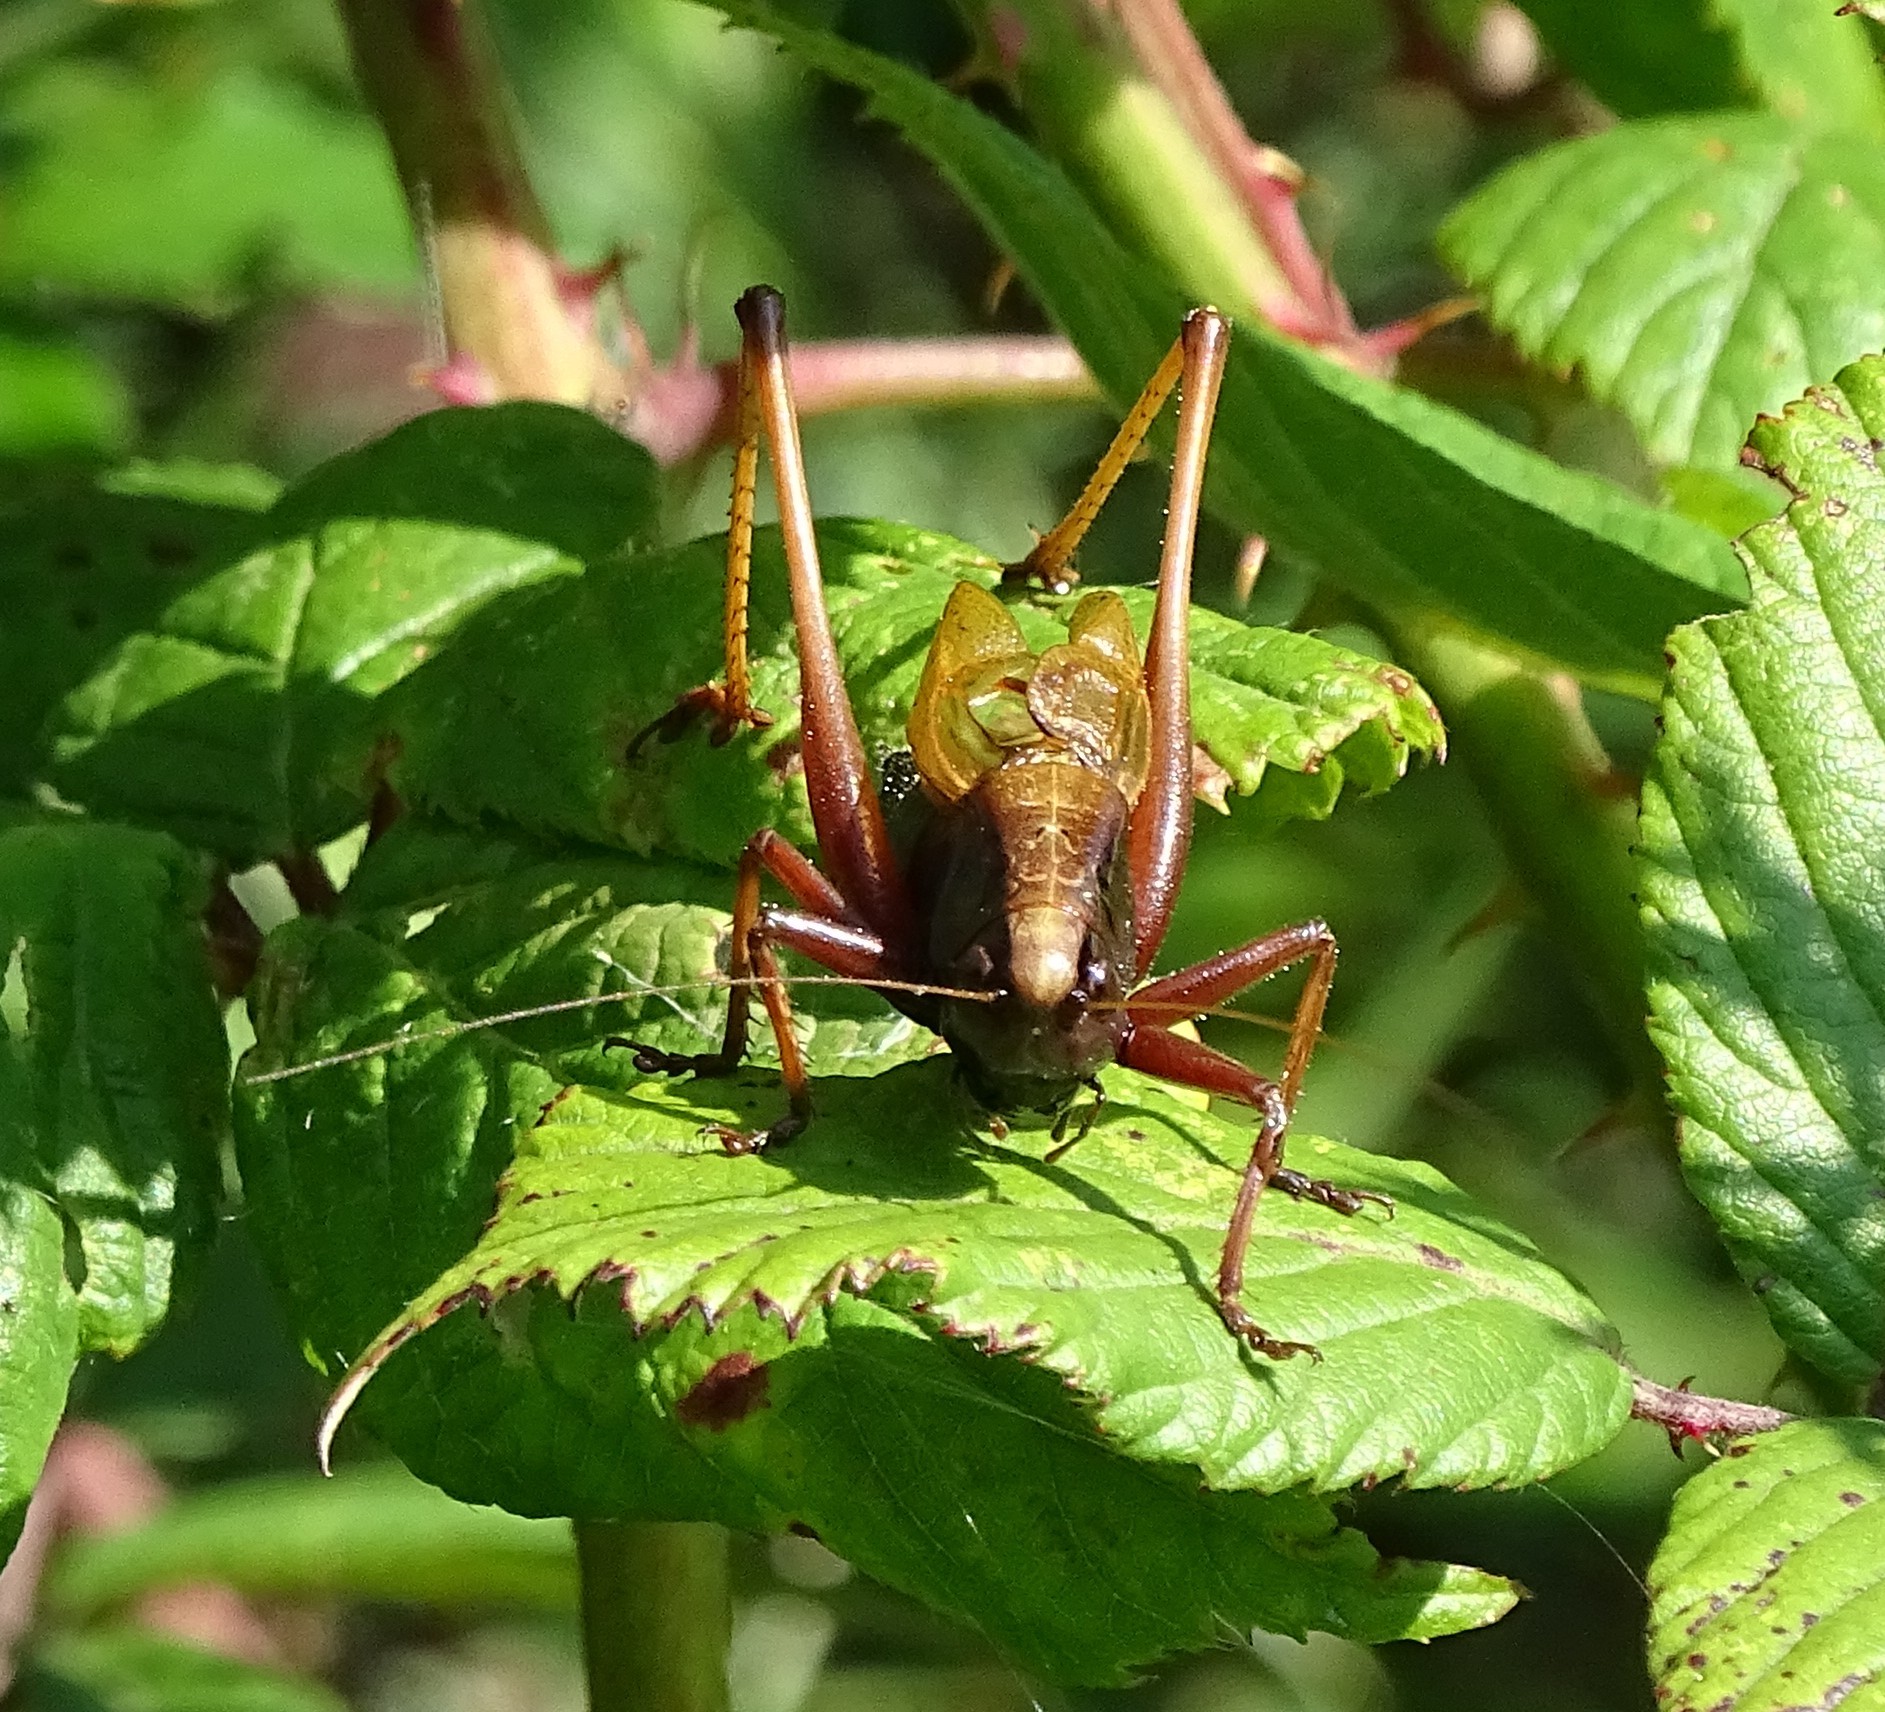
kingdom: Animalia
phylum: Arthropoda
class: Insecta
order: Orthoptera
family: Tettigoniidae
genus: Zeuneriana
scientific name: Zeuneriana abbreviata
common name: Basque bush-cricket
